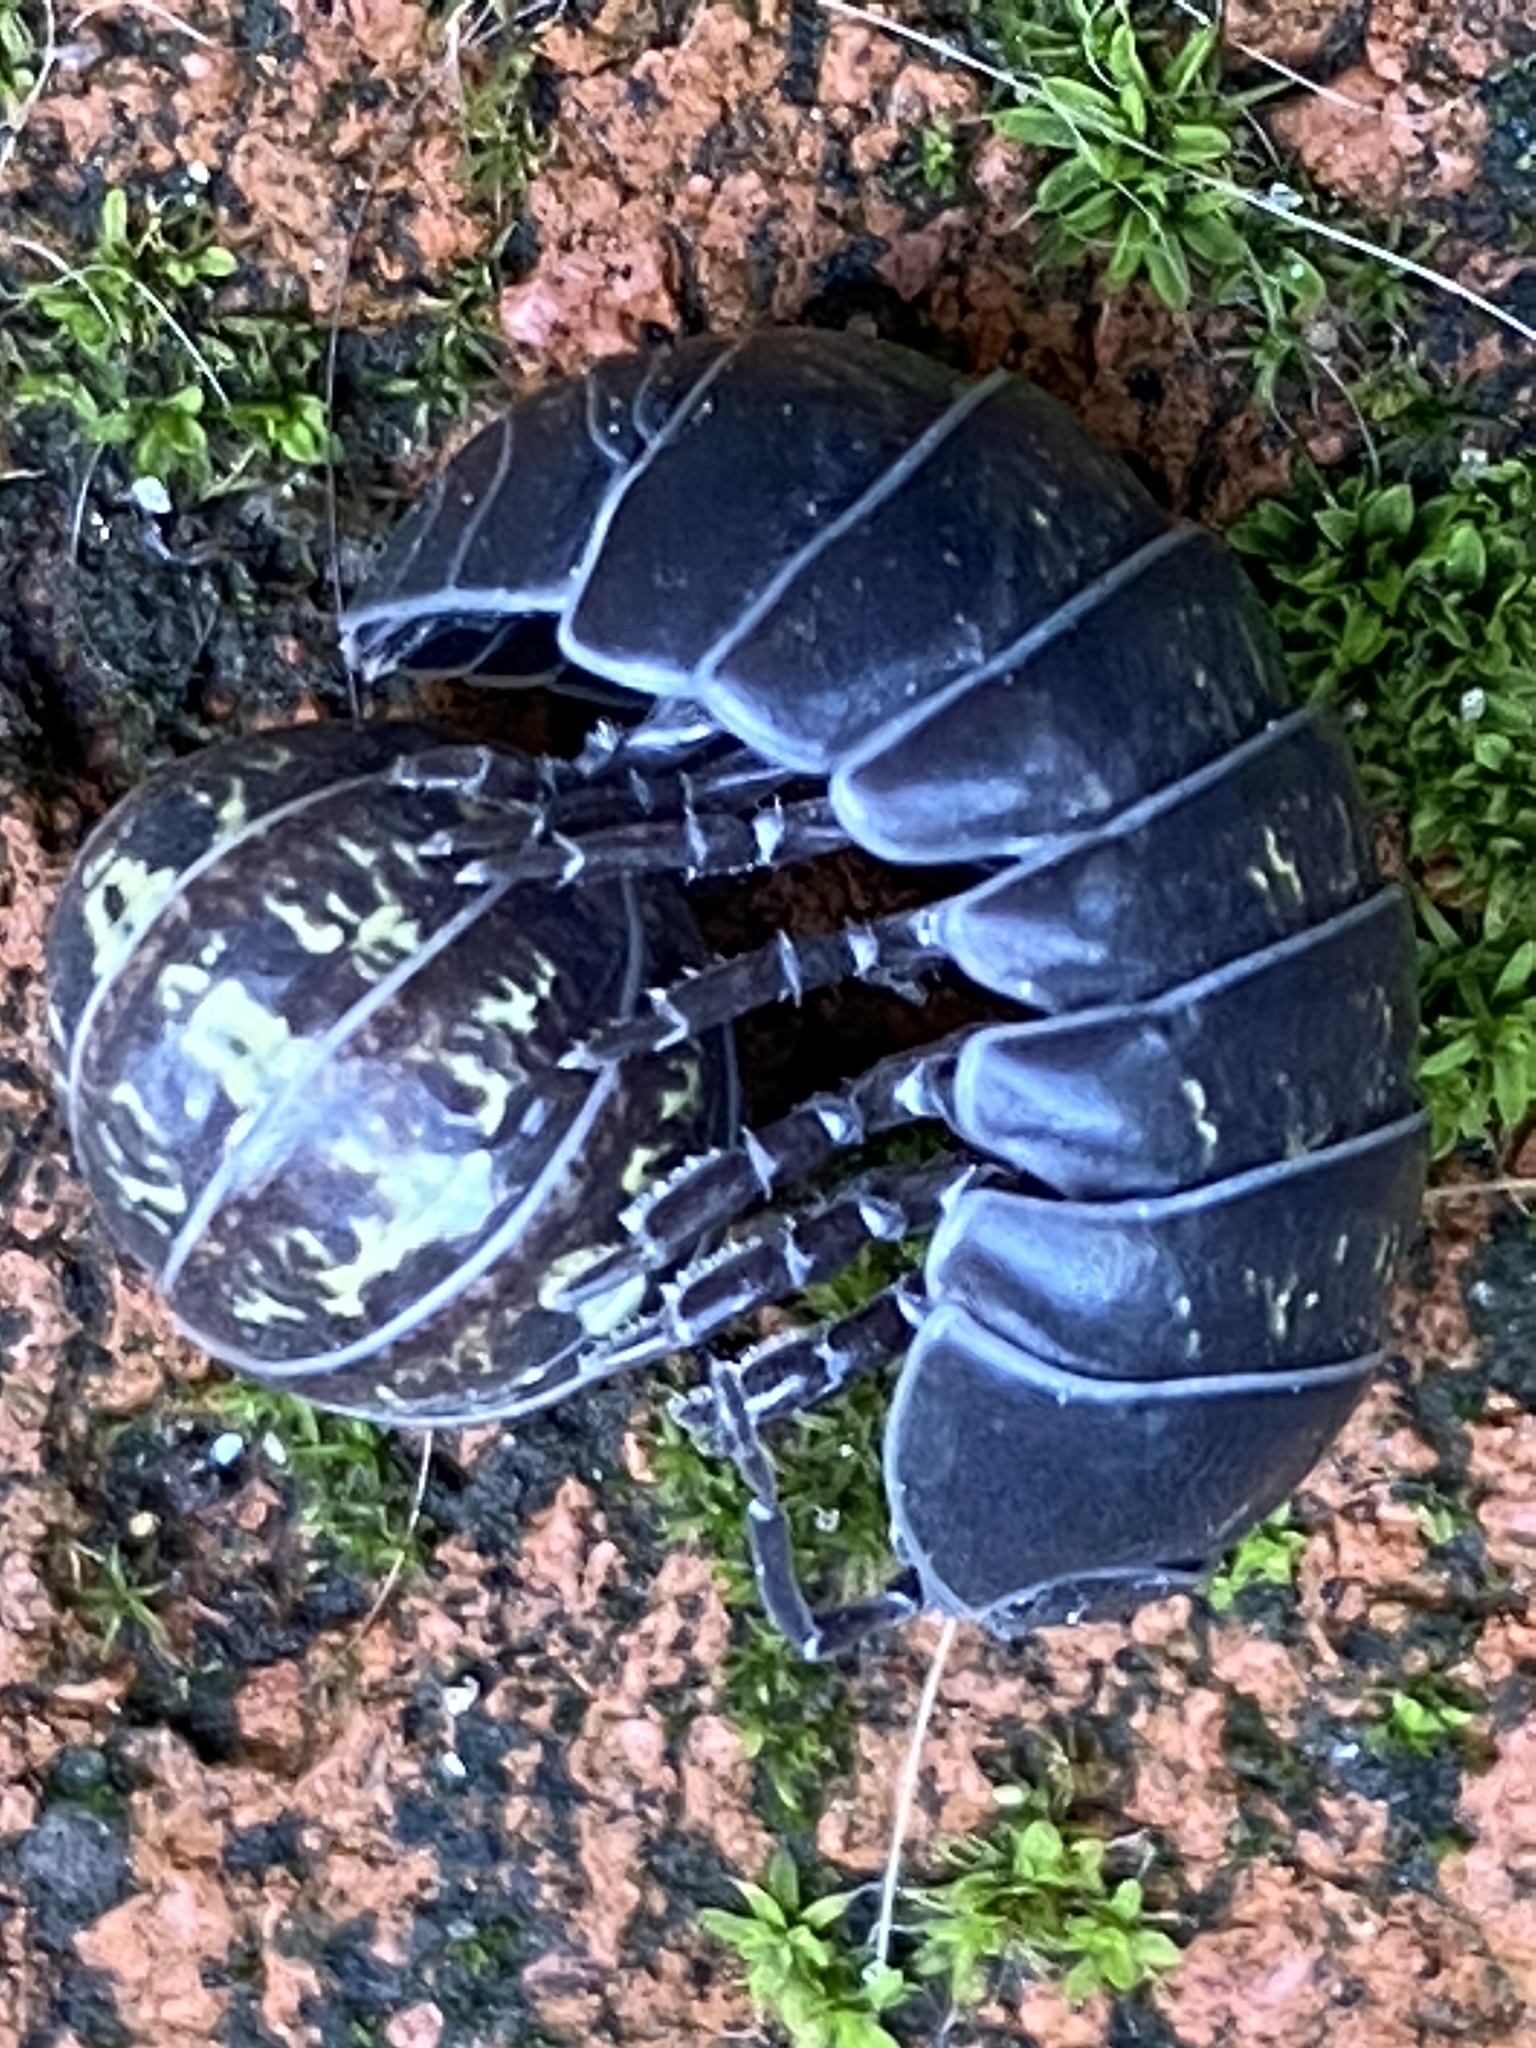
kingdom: Animalia
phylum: Arthropoda
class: Malacostraca
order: Isopoda
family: Armadillidiidae
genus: Armadillidium
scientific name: Armadillidium vulgare
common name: Common pill woodlouse
